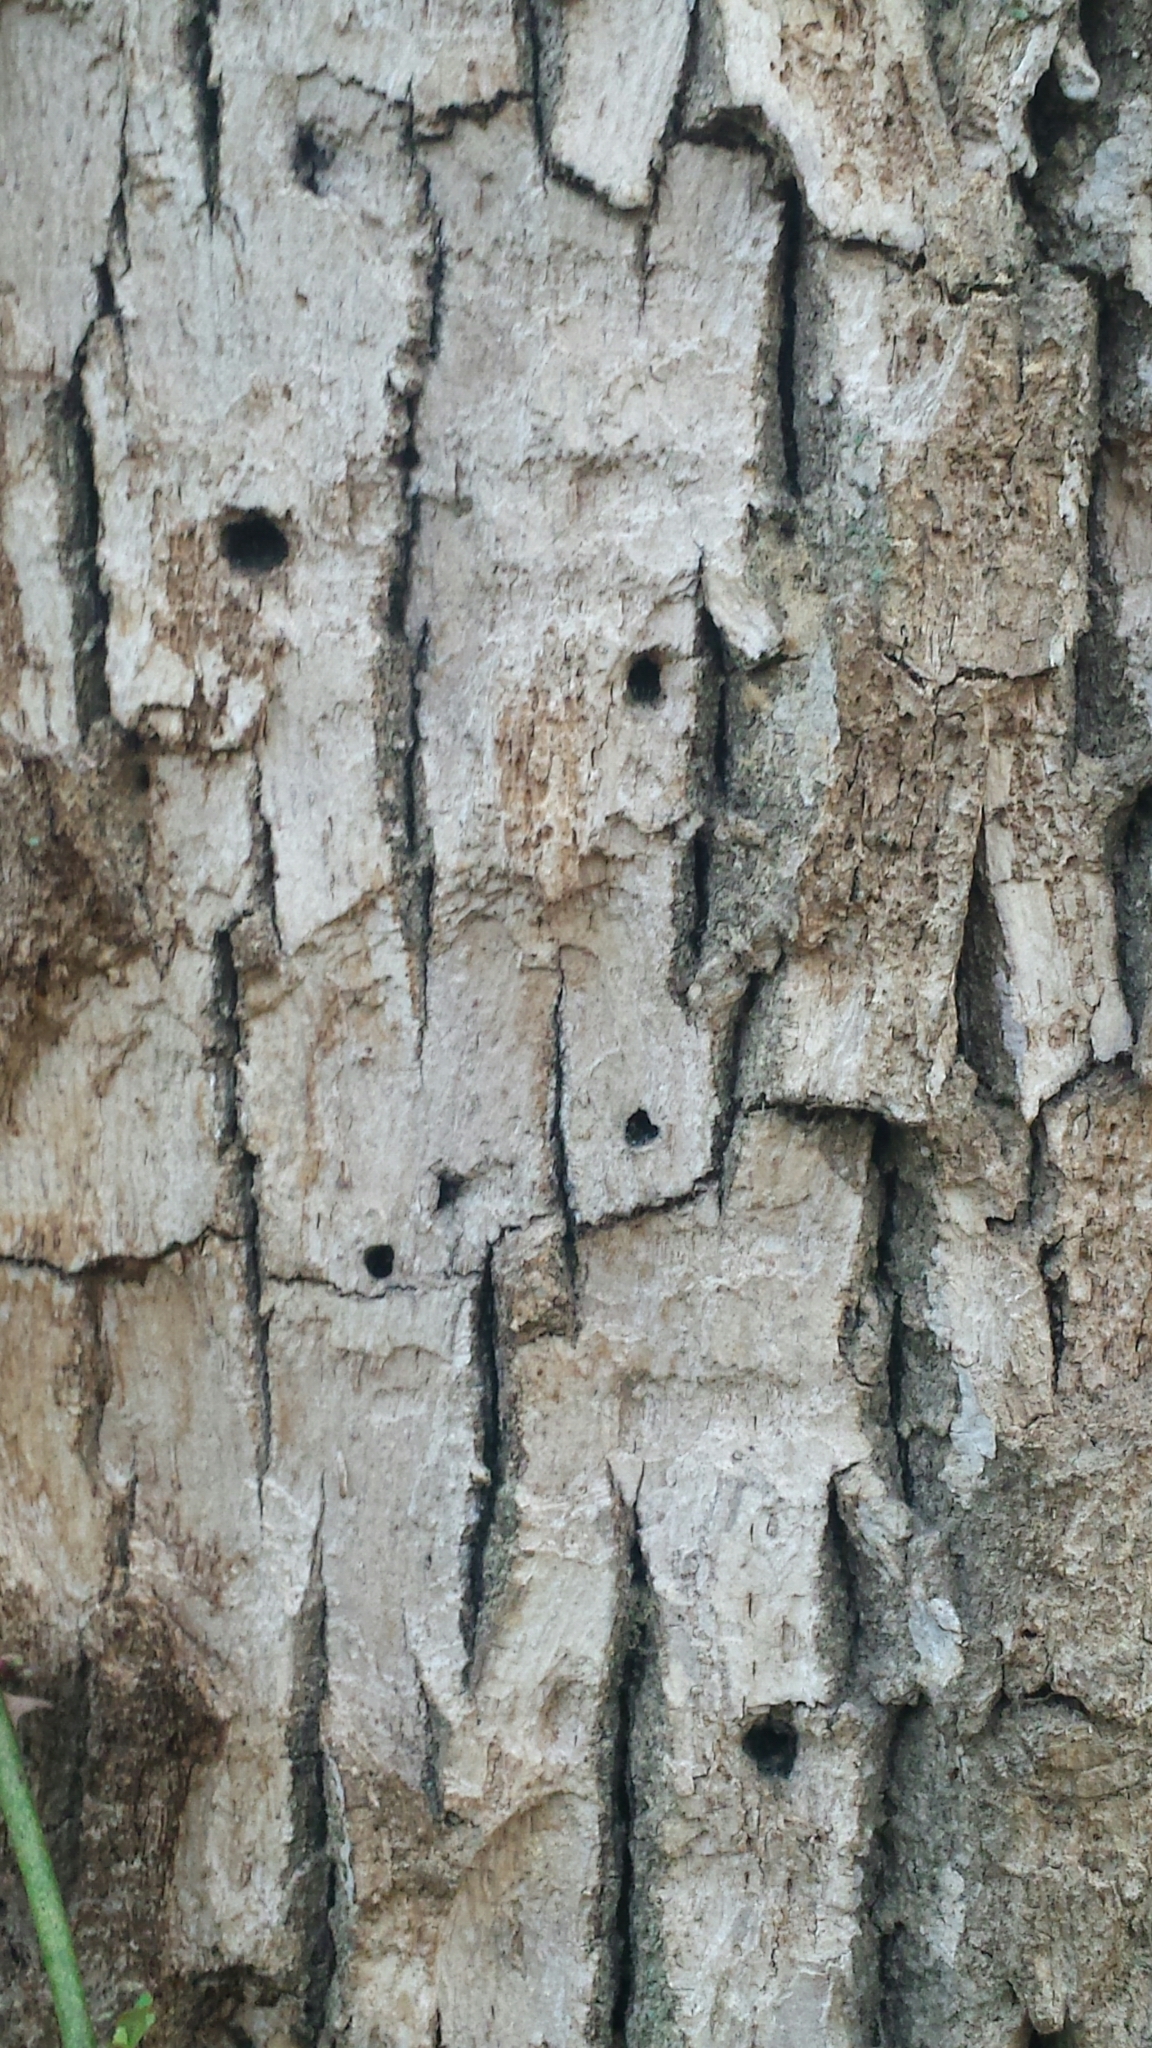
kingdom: Animalia
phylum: Arthropoda
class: Insecta
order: Coleoptera
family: Buprestidae
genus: Agrilus
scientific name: Agrilus planipennis
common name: Emerald ash borer
